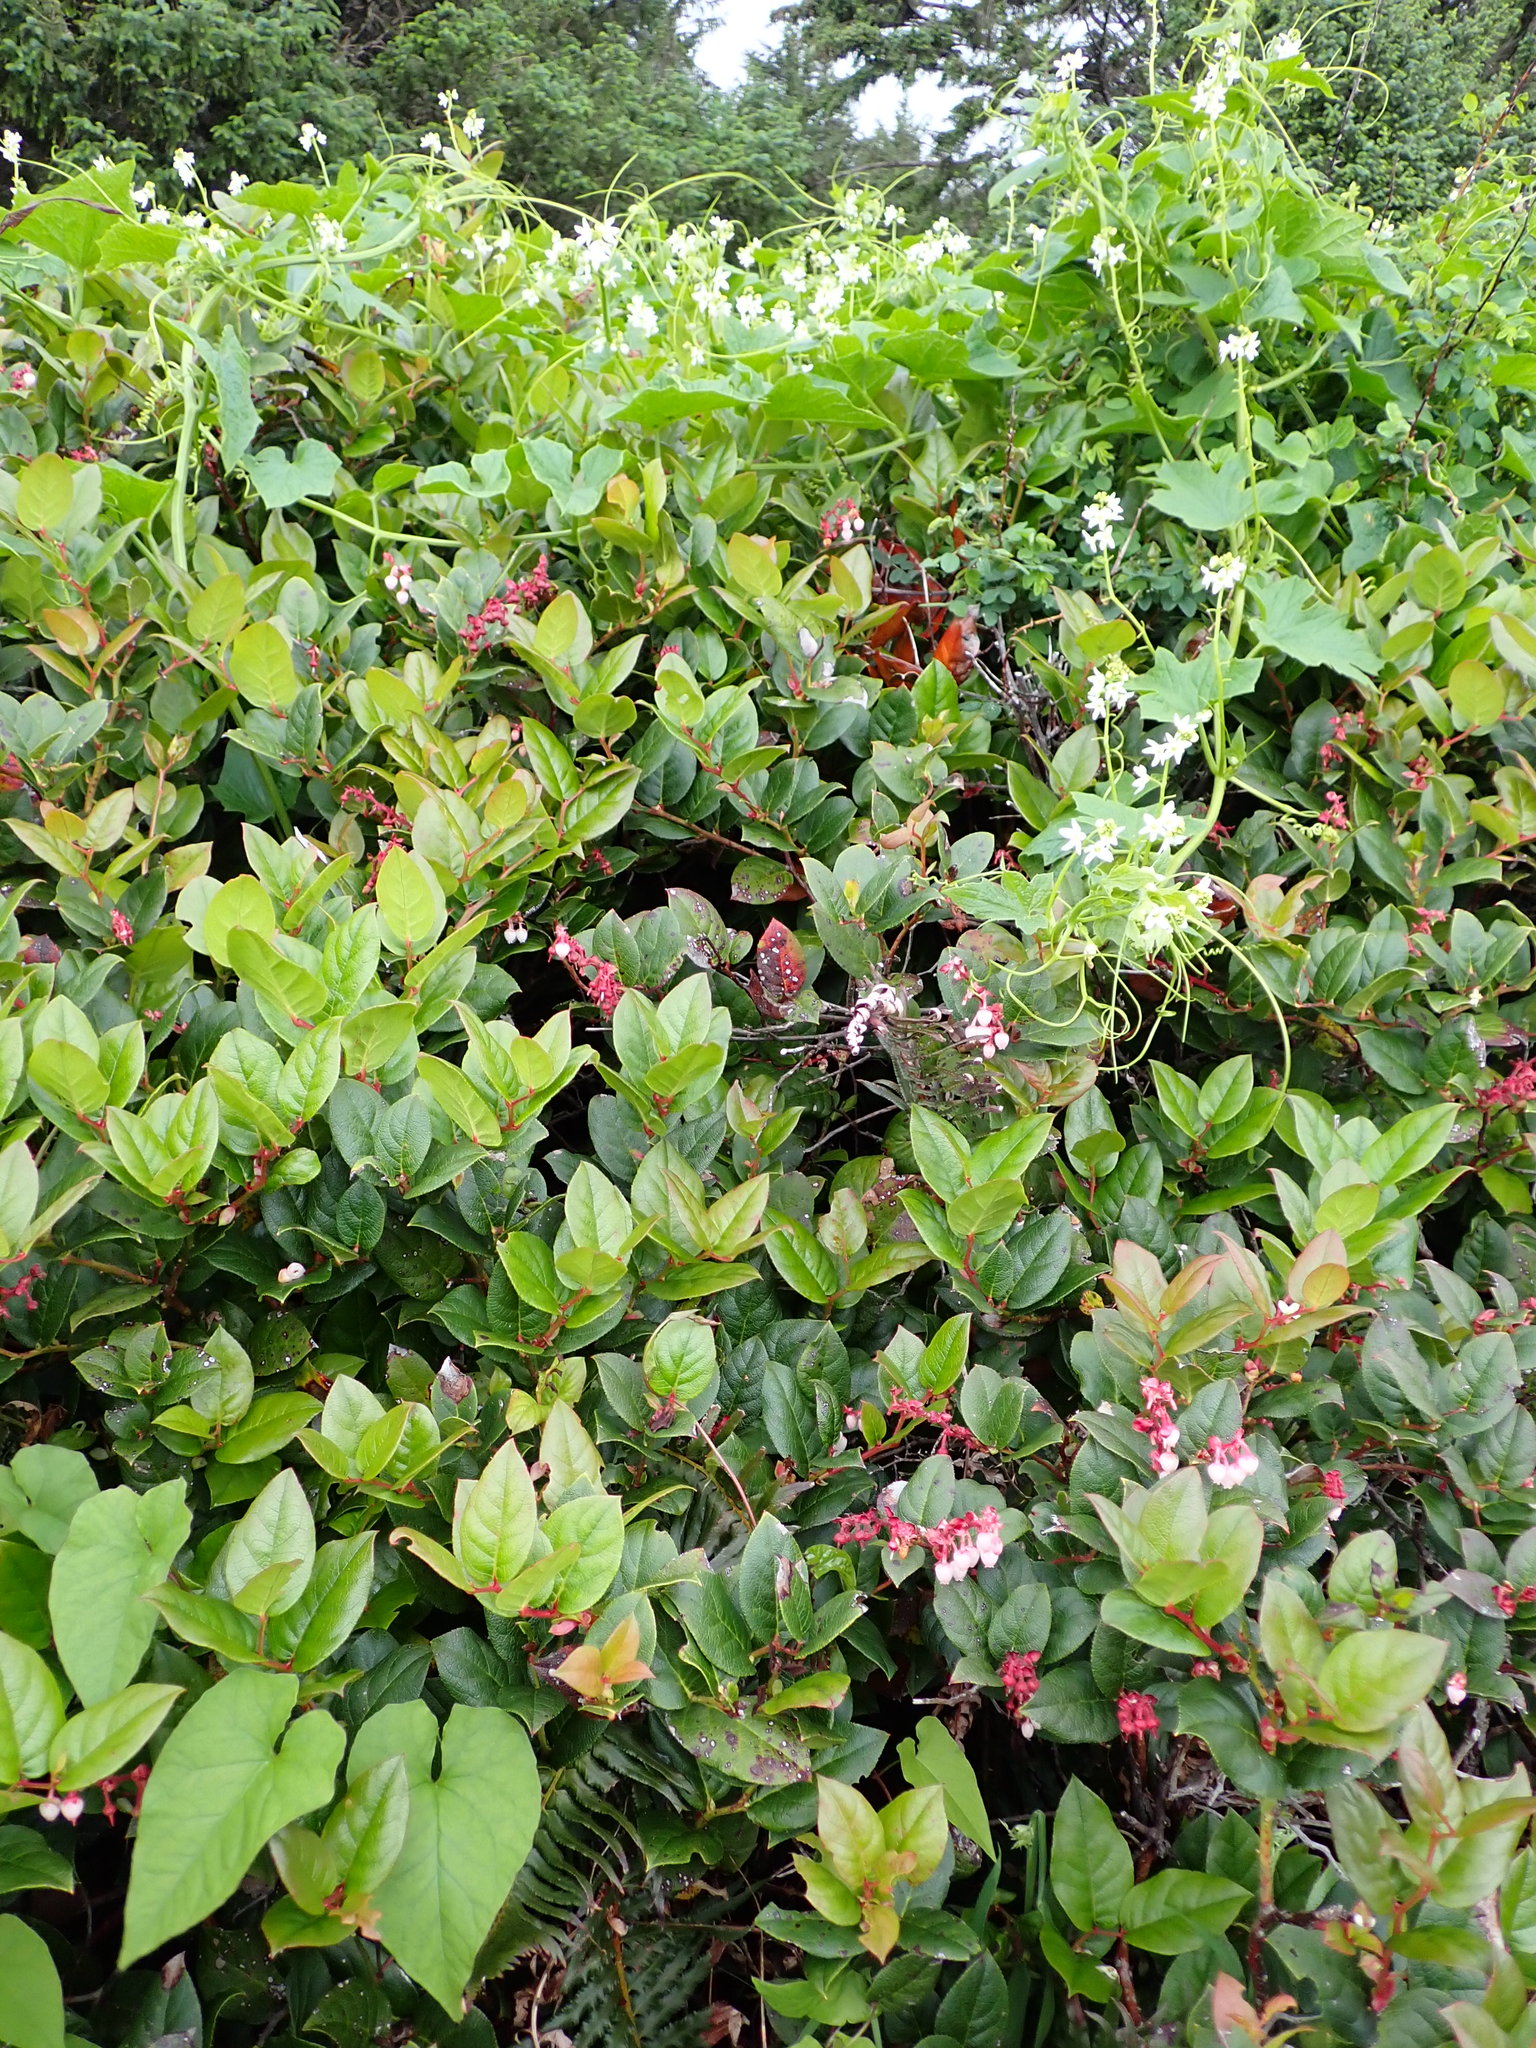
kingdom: Plantae
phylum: Tracheophyta
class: Magnoliopsida
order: Ericales
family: Ericaceae
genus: Gaultheria
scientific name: Gaultheria shallon
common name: Shallon
